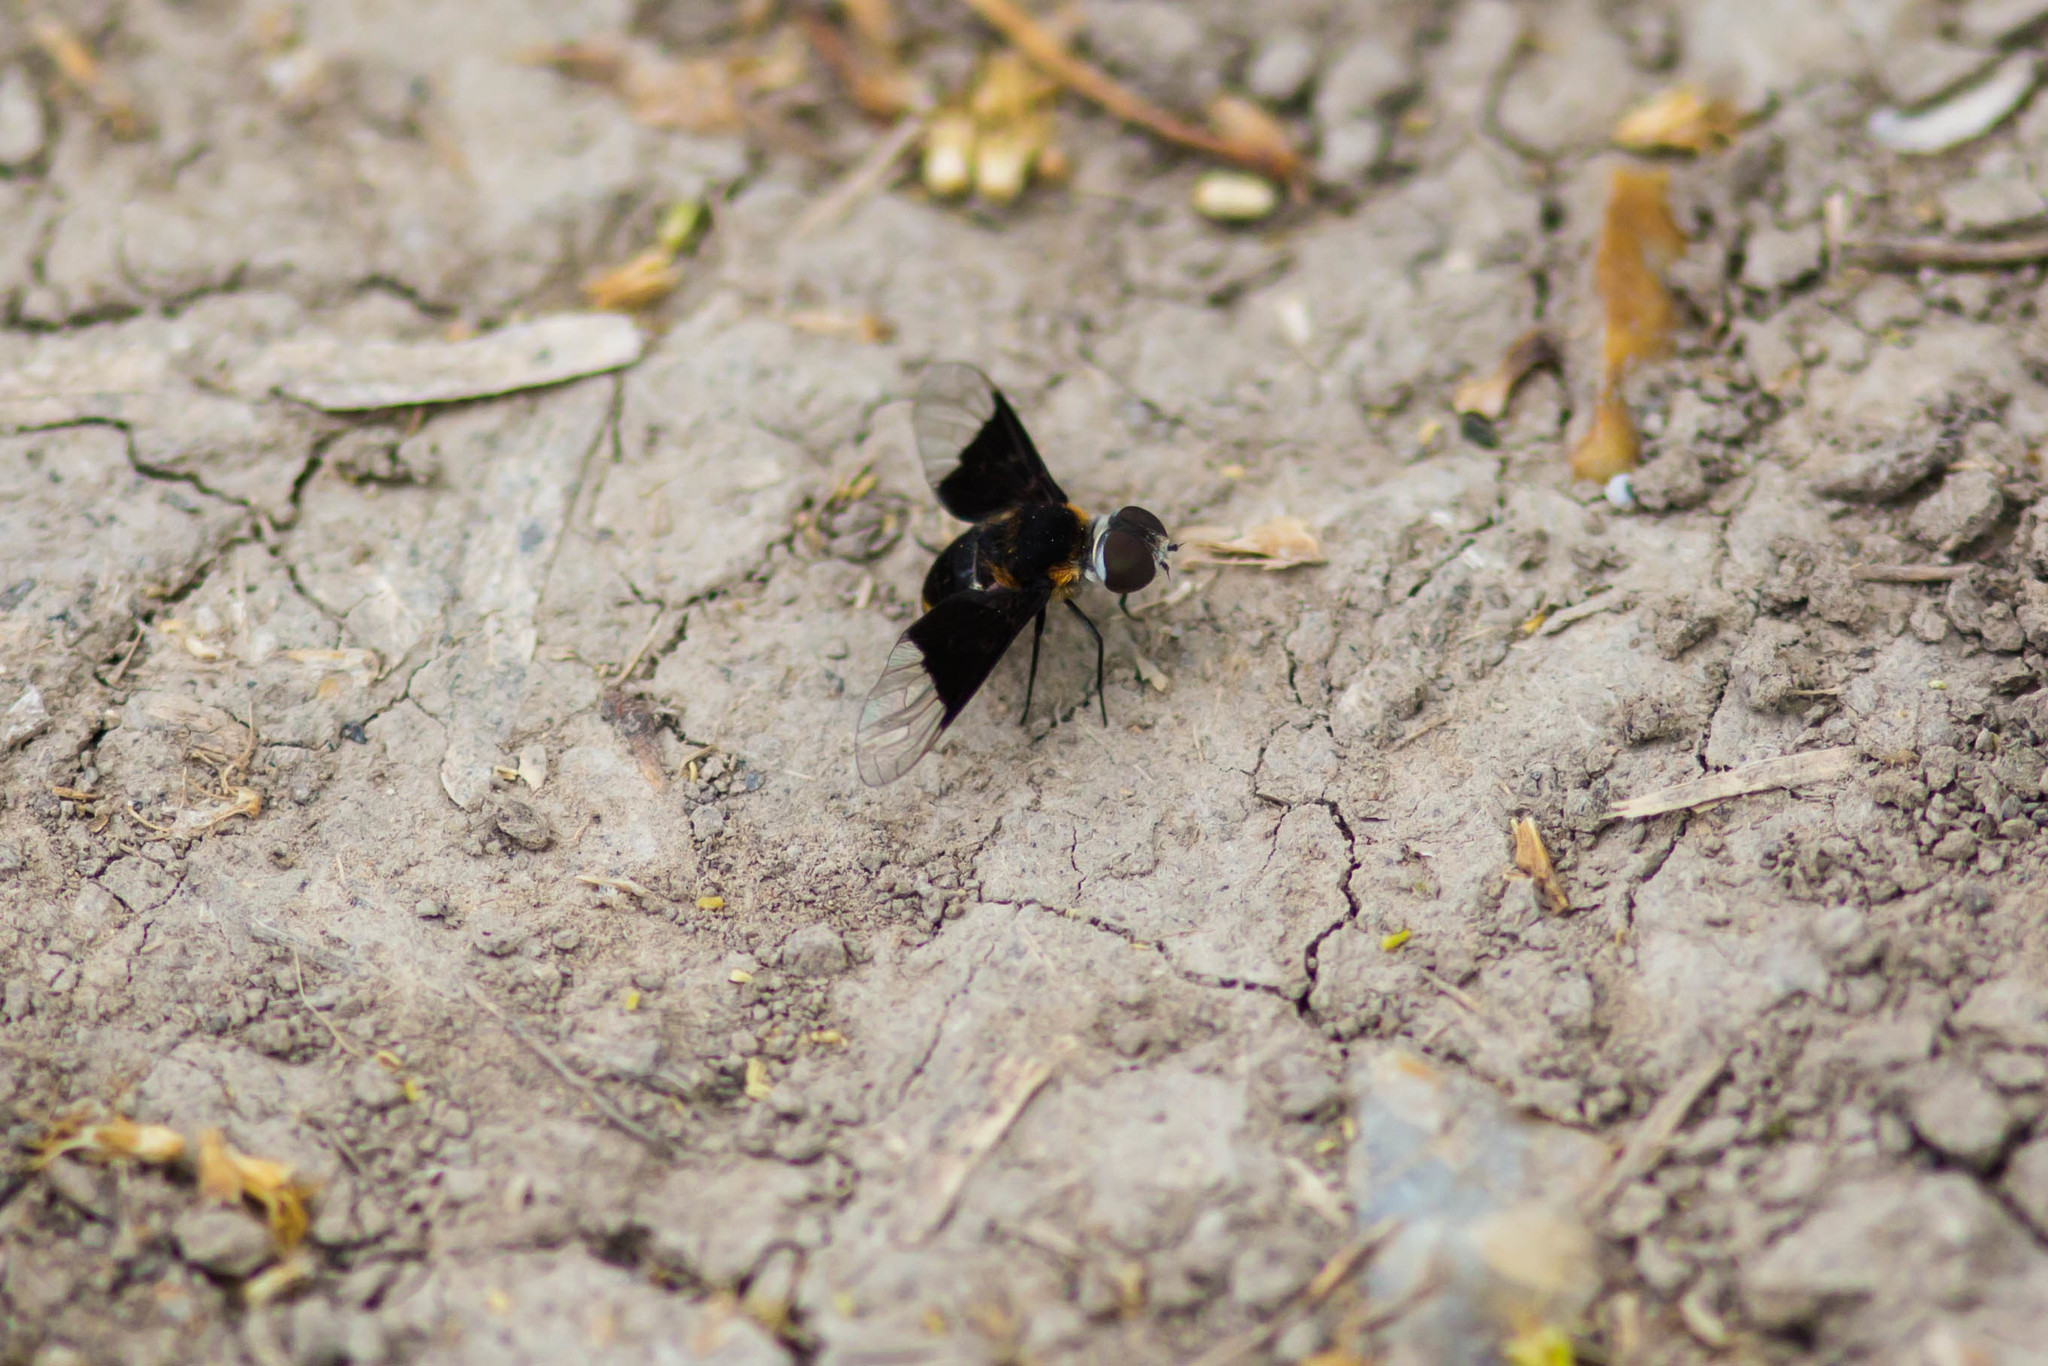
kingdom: Animalia
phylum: Arthropoda
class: Insecta
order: Diptera
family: Bombyliidae
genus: Ins
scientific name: Ins celeris
